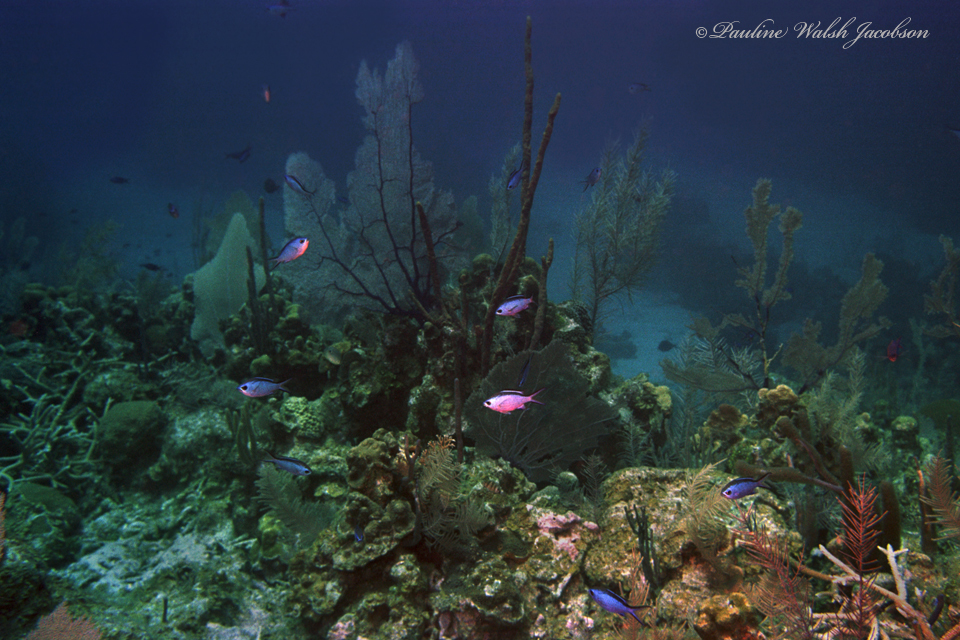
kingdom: Animalia
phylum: Chordata
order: Perciformes
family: Pomacentridae
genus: Chromis
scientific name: Chromis cyanea
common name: Blue chromis
